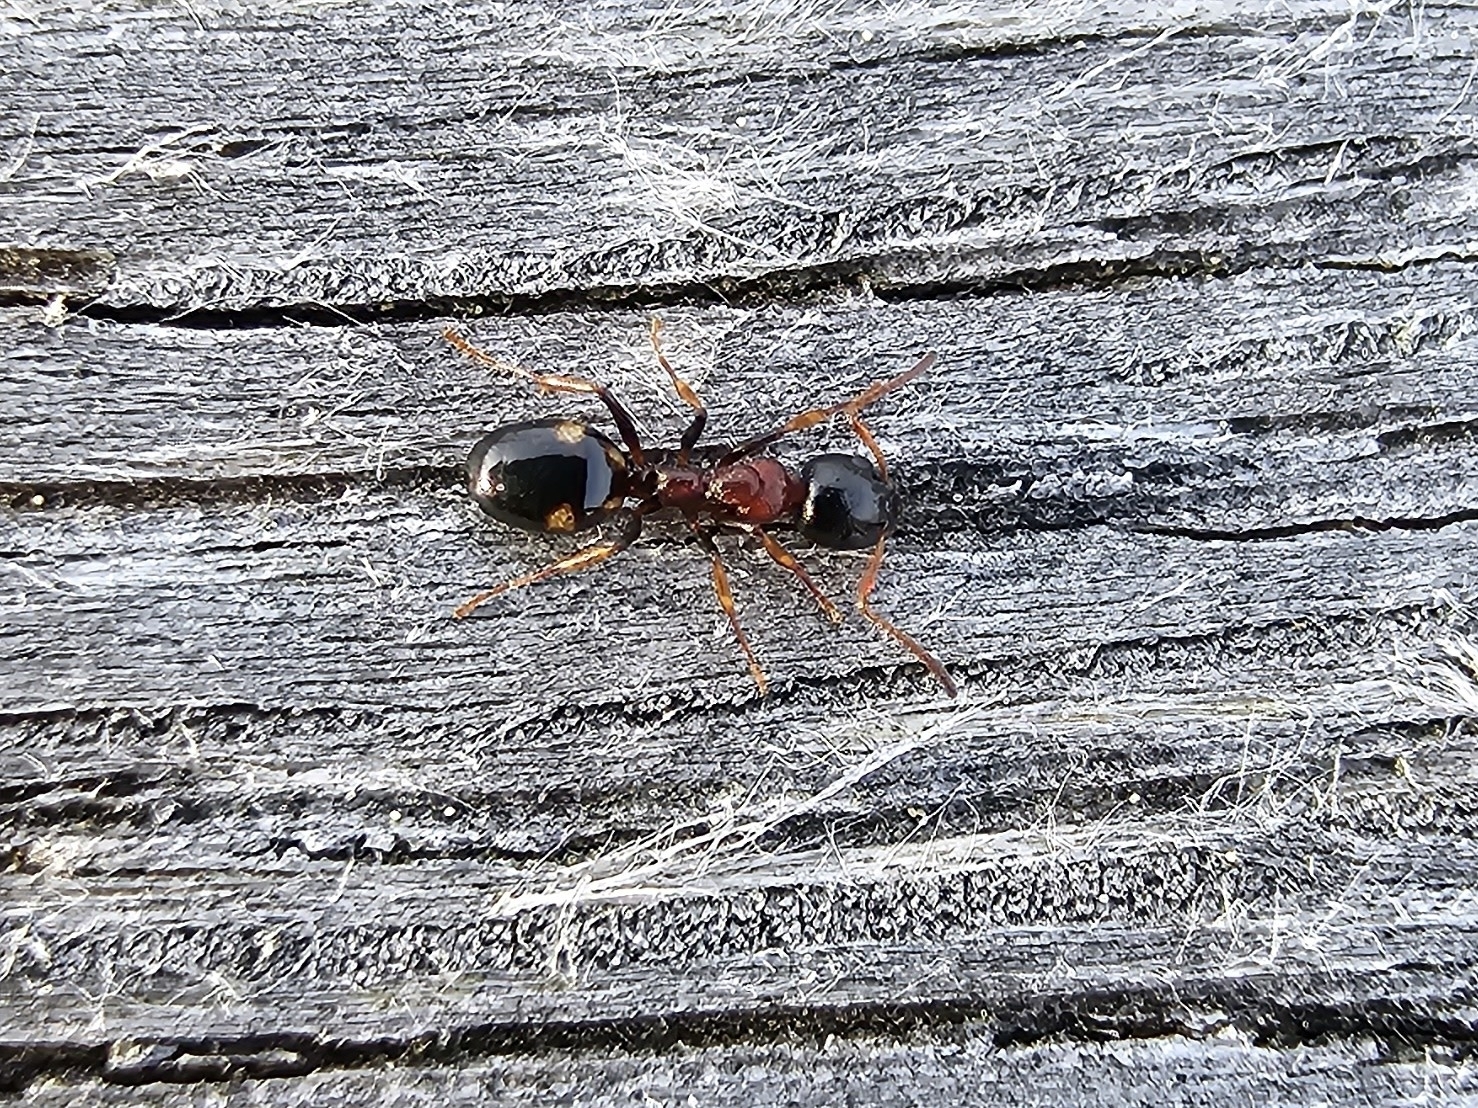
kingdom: Animalia
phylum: Arthropoda
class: Insecta
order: Hymenoptera
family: Formicidae
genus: Dolichoderus
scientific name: Dolichoderus quadripunctatus
